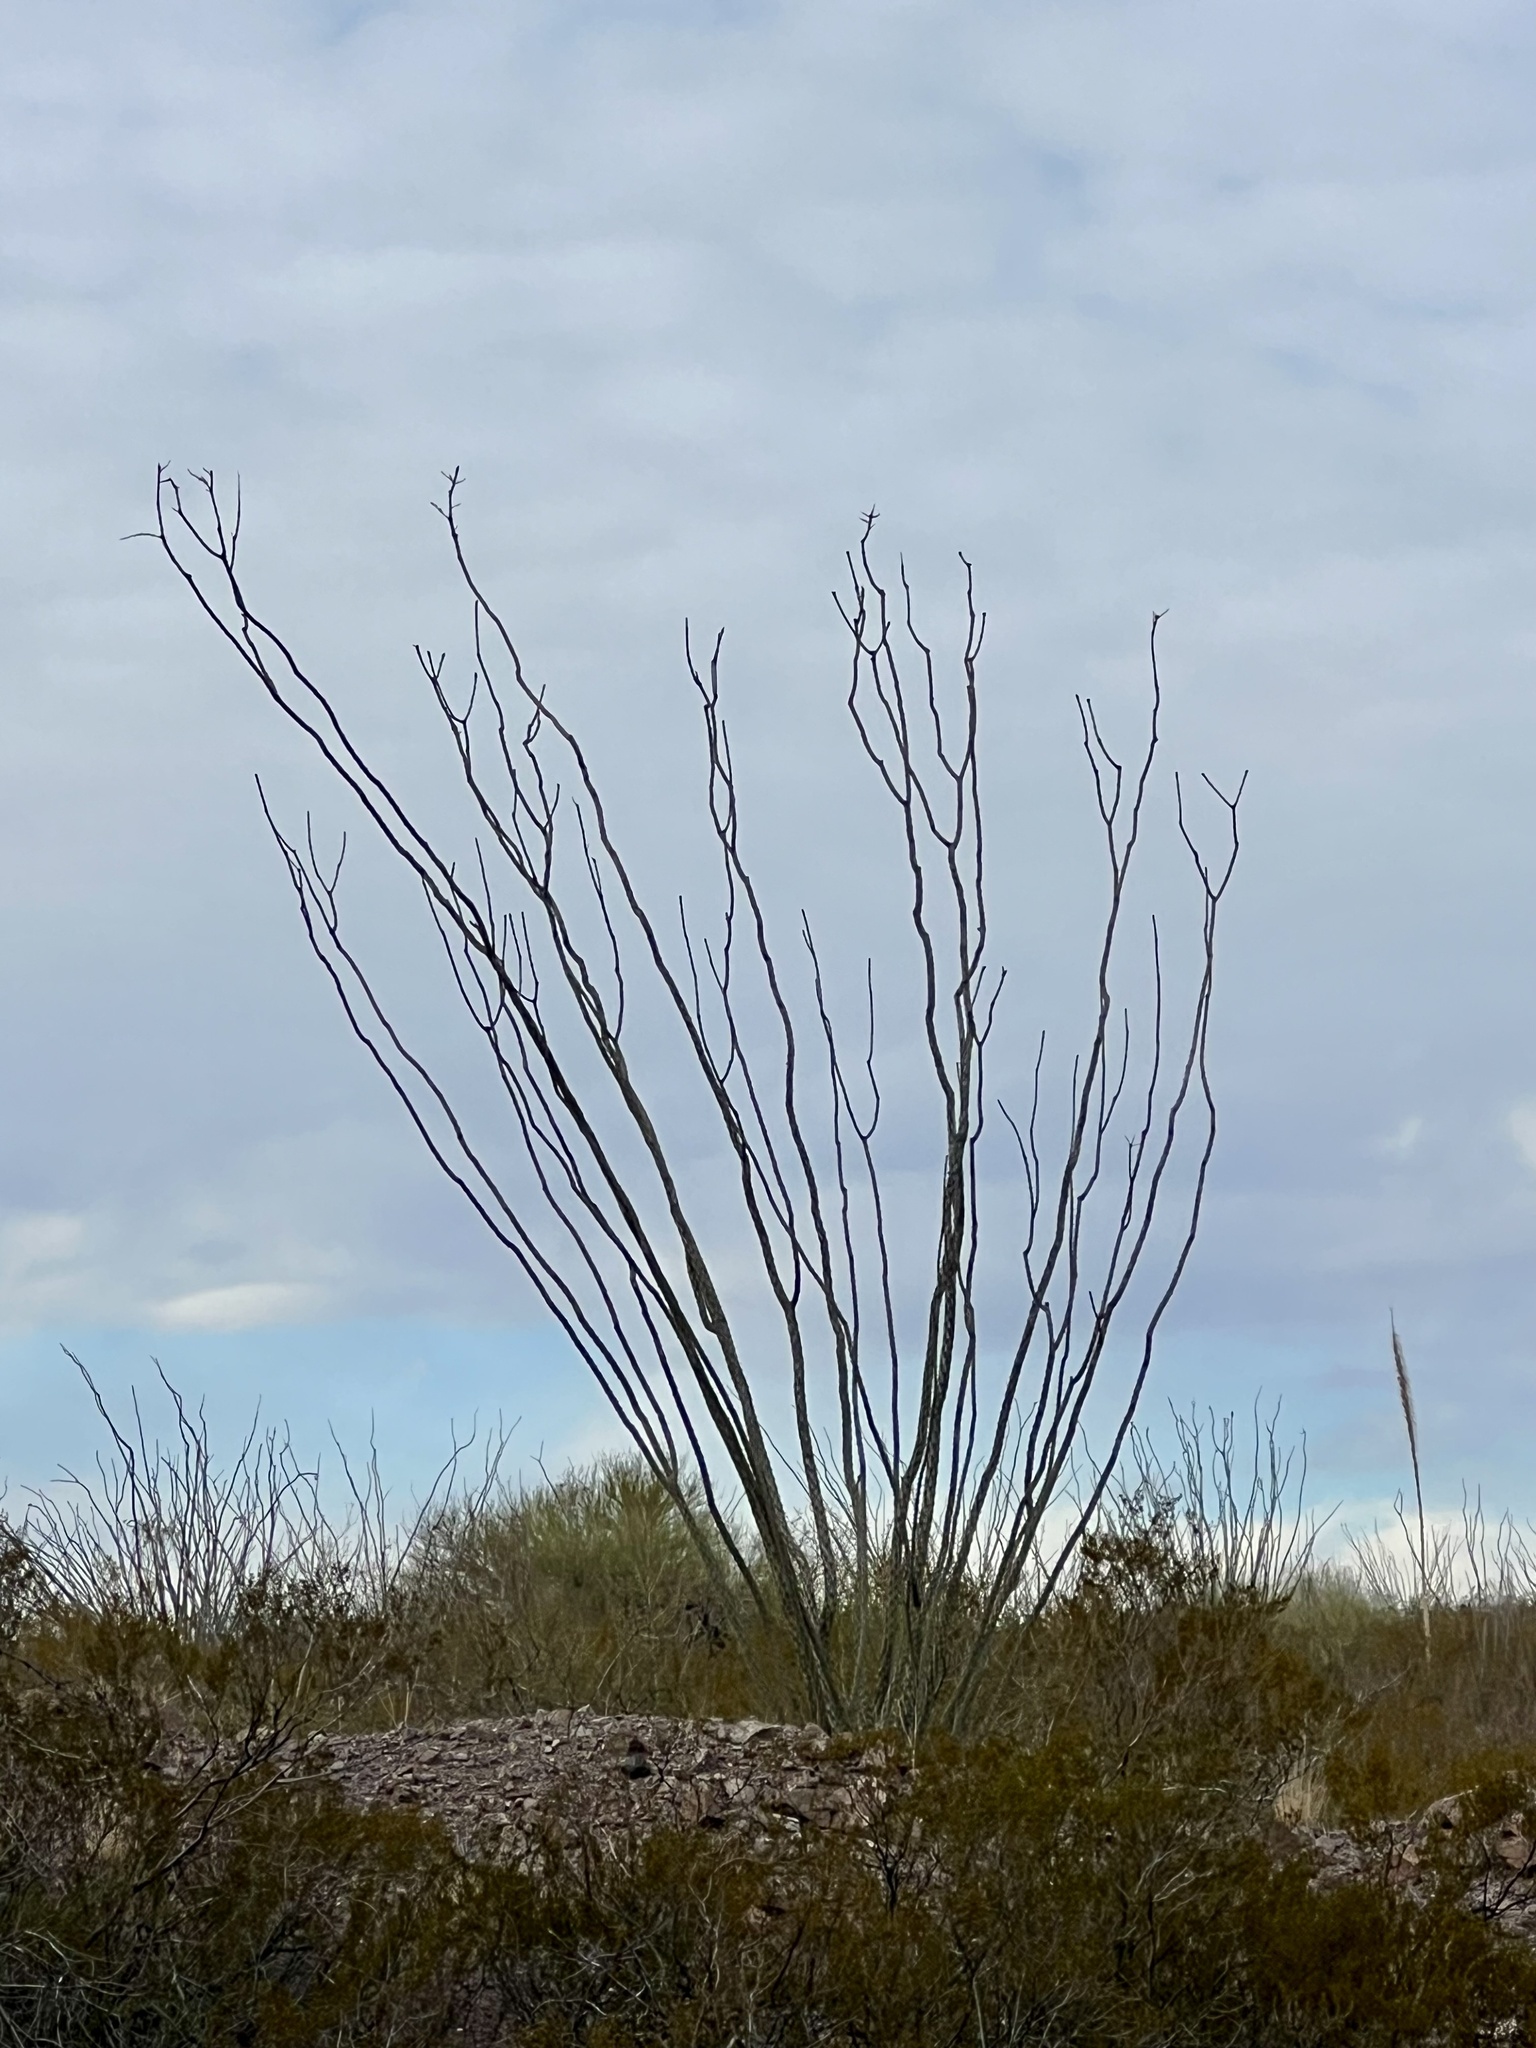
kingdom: Plantae
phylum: Tracheophyta
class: Magnoliopsida
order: Ericales
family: Fouquieriaceae
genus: Fouquieria
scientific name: Fouquieria splendens
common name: Vine-cactus
